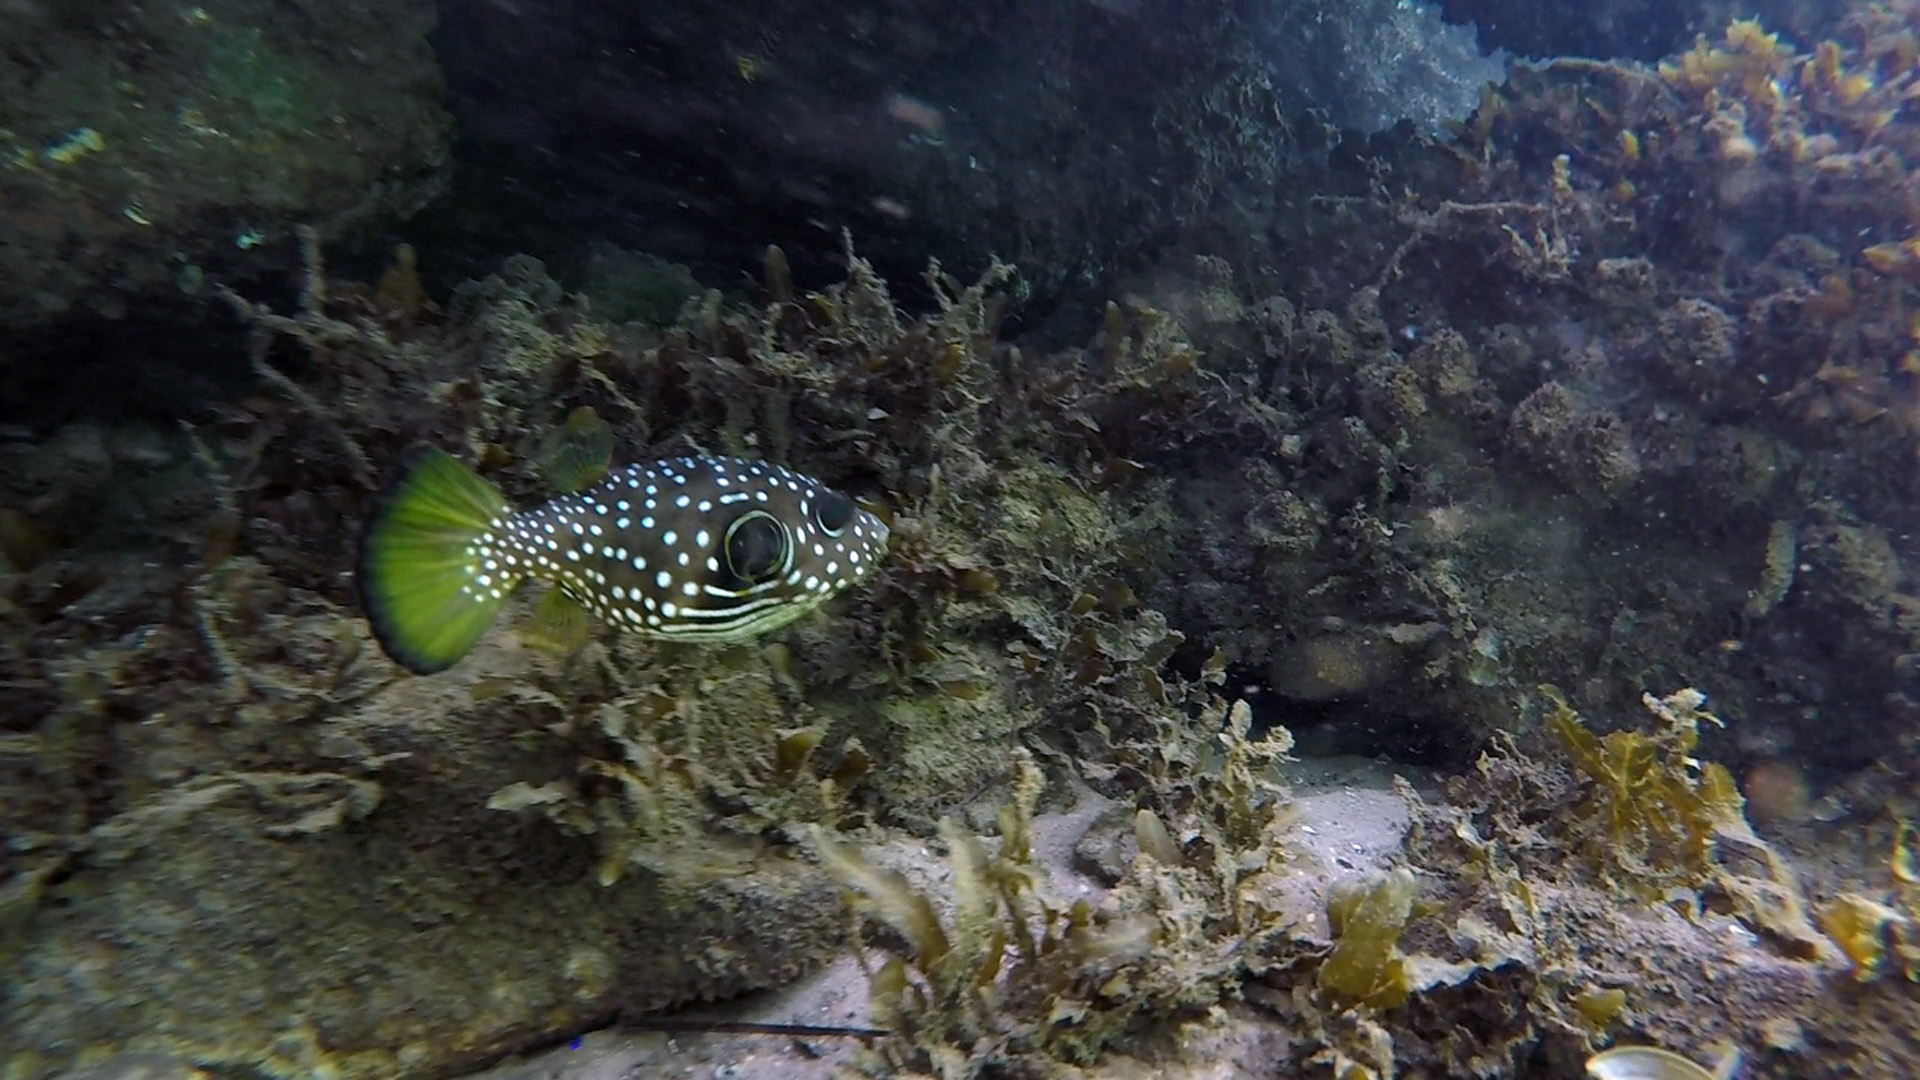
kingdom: Animalia
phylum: Chordata
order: Tetraodontiformes
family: Tetraodontidae
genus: Arothron
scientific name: Arothron hispidus
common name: Stripebelly puffer
